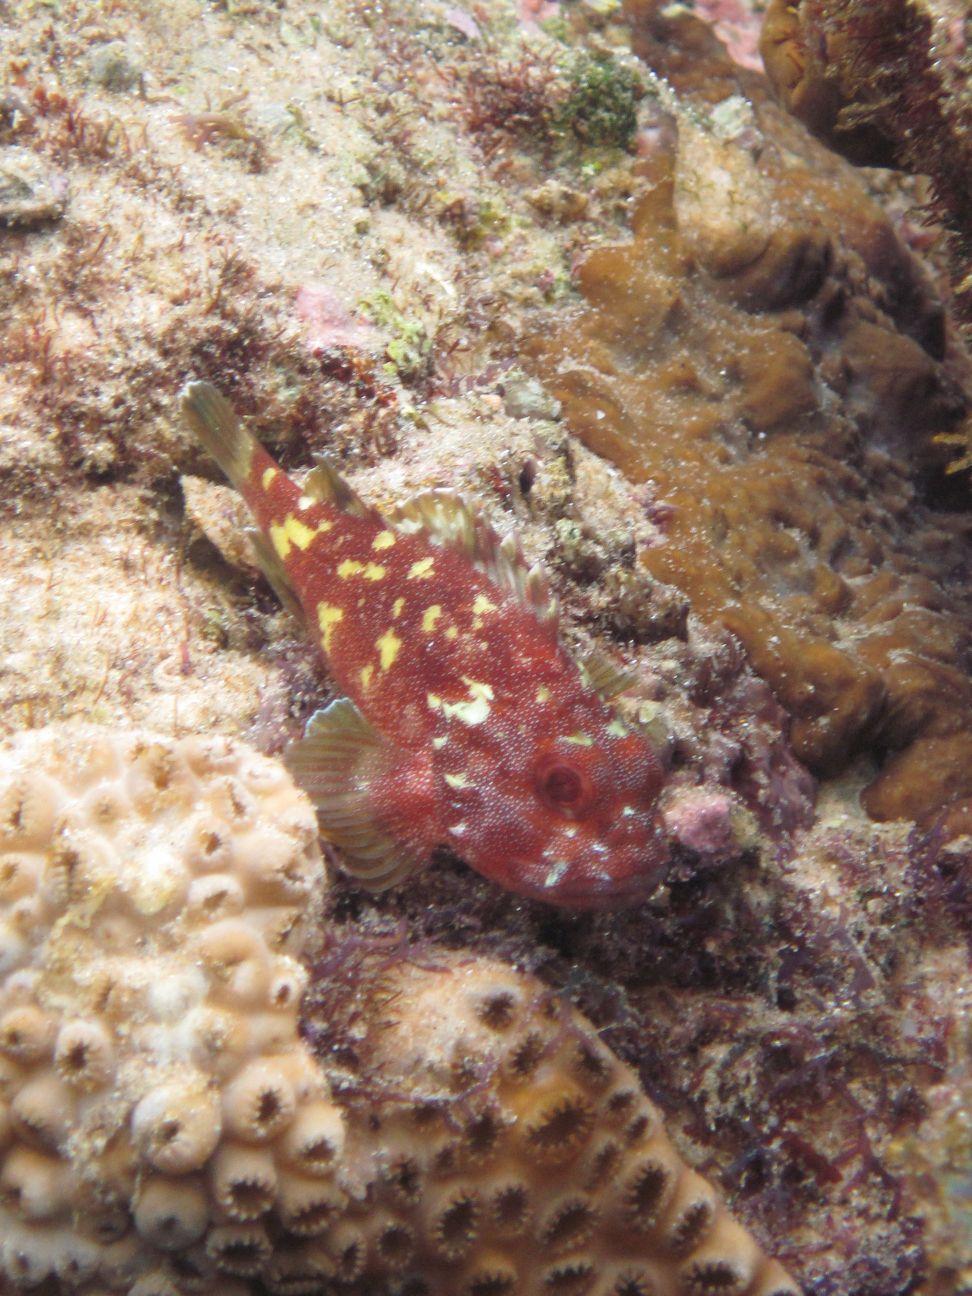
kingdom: Animalia
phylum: Chordata
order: Scorpaeniformes
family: Scorpaenidae
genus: Sebastapistes
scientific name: Sebastapistes cyanostigma
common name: Yellowspotted scorpionfish
